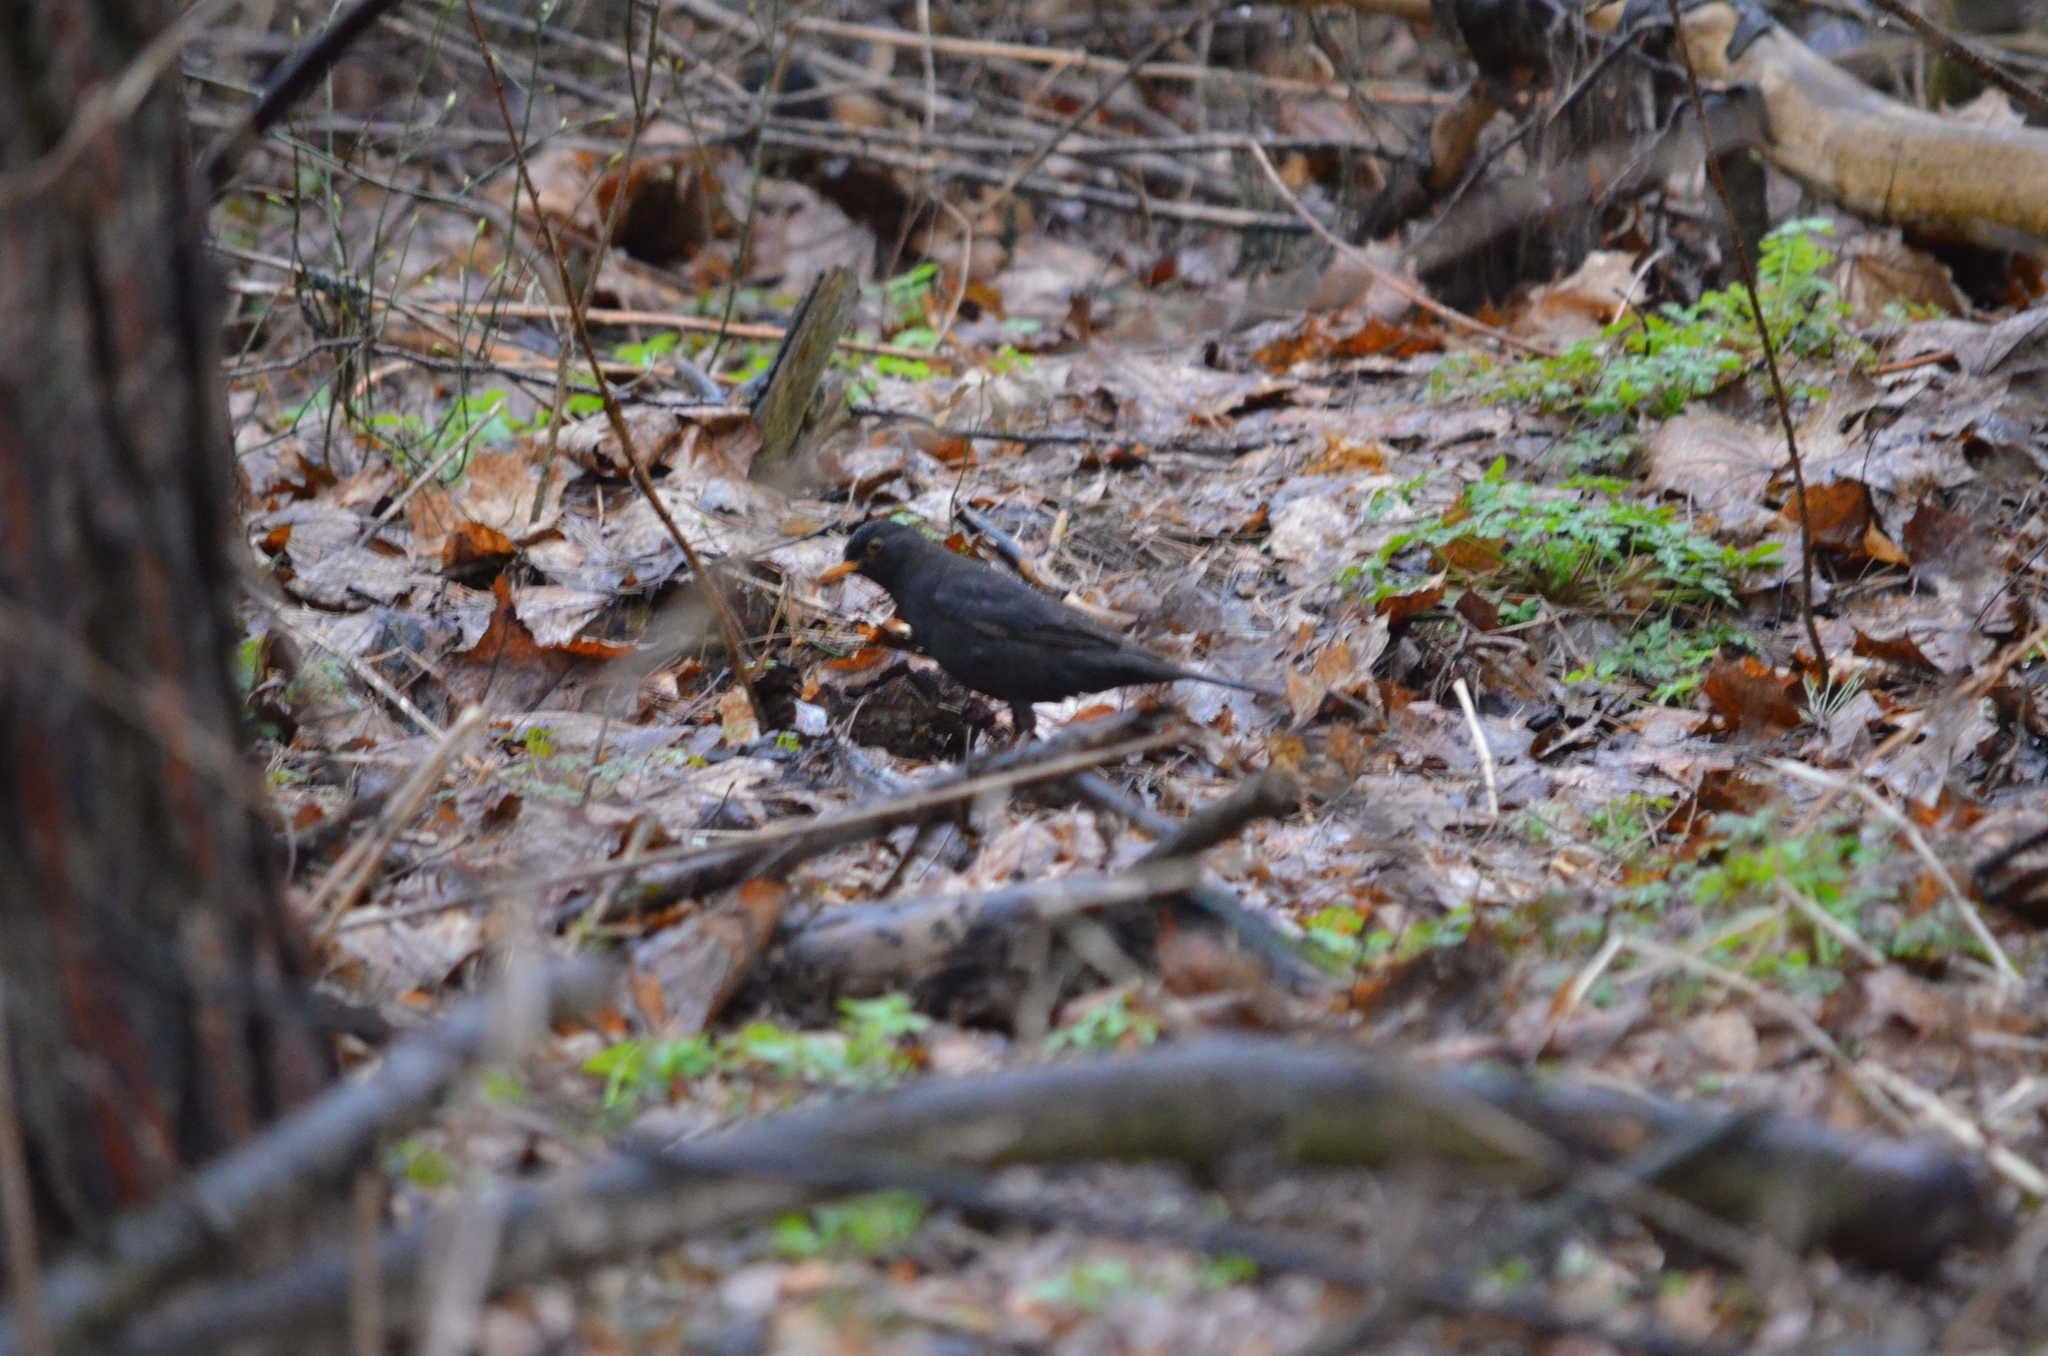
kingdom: Animalia
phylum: Chordata
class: Aves
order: Passeriformes
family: Turdidae
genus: Turdus
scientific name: Turdus merula
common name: Common blackbird
